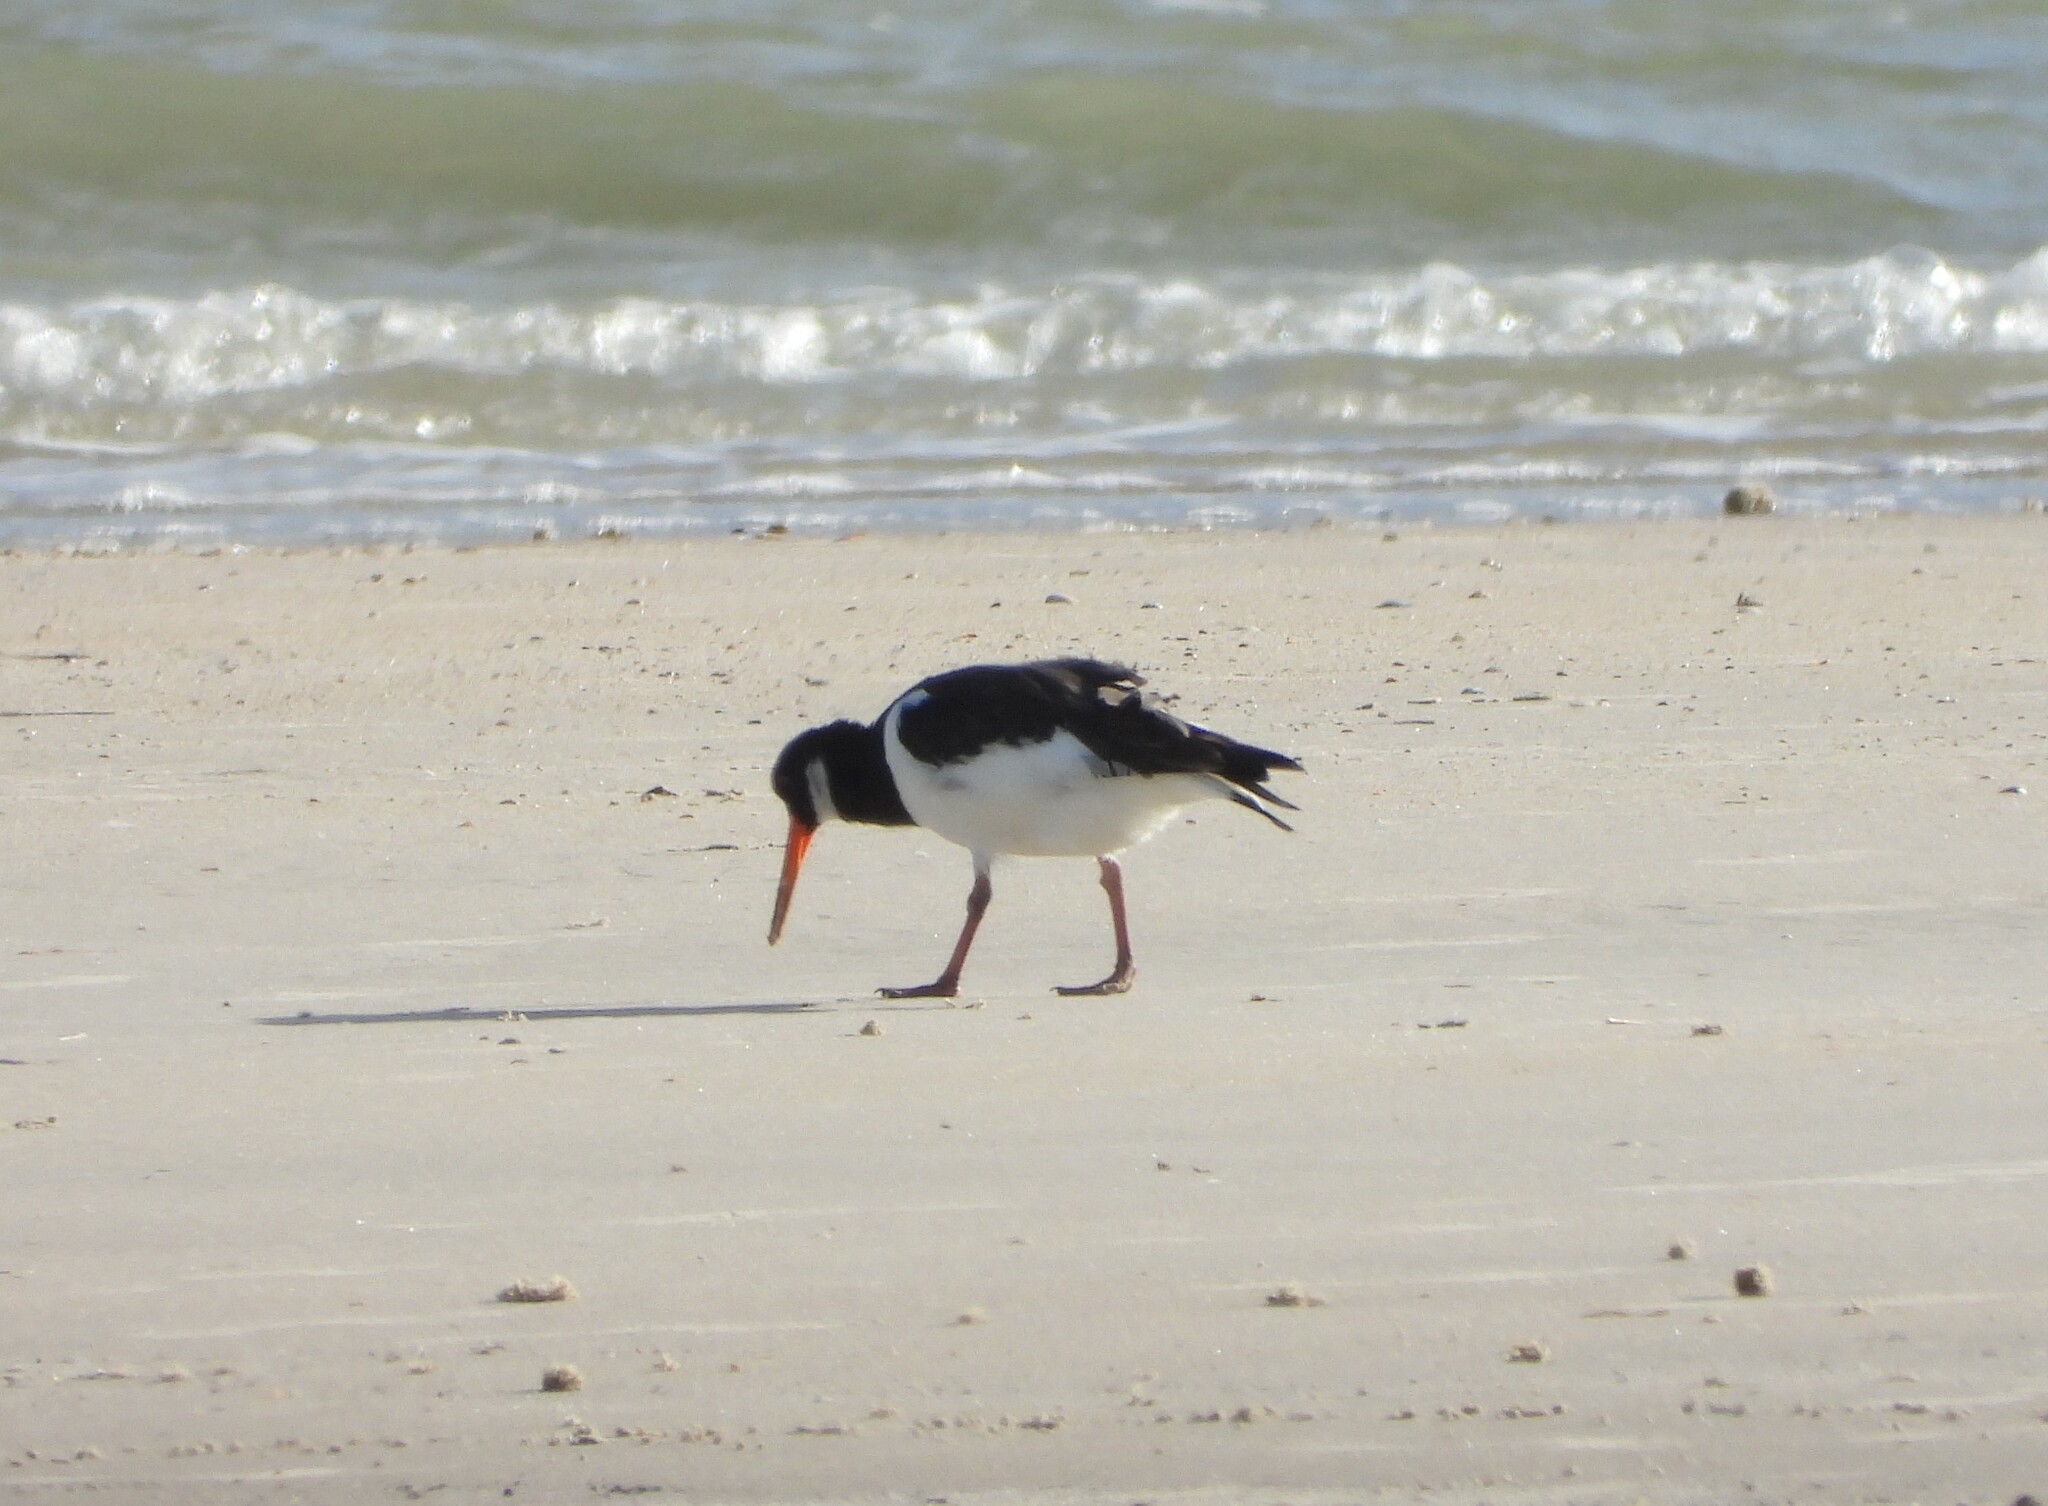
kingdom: Animalia
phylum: Chordata
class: Aves
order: Charadriiformes
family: Haematopodidae
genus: Haematopus
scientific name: Haematopus ostralegus
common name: Eurasian oystercatcher
